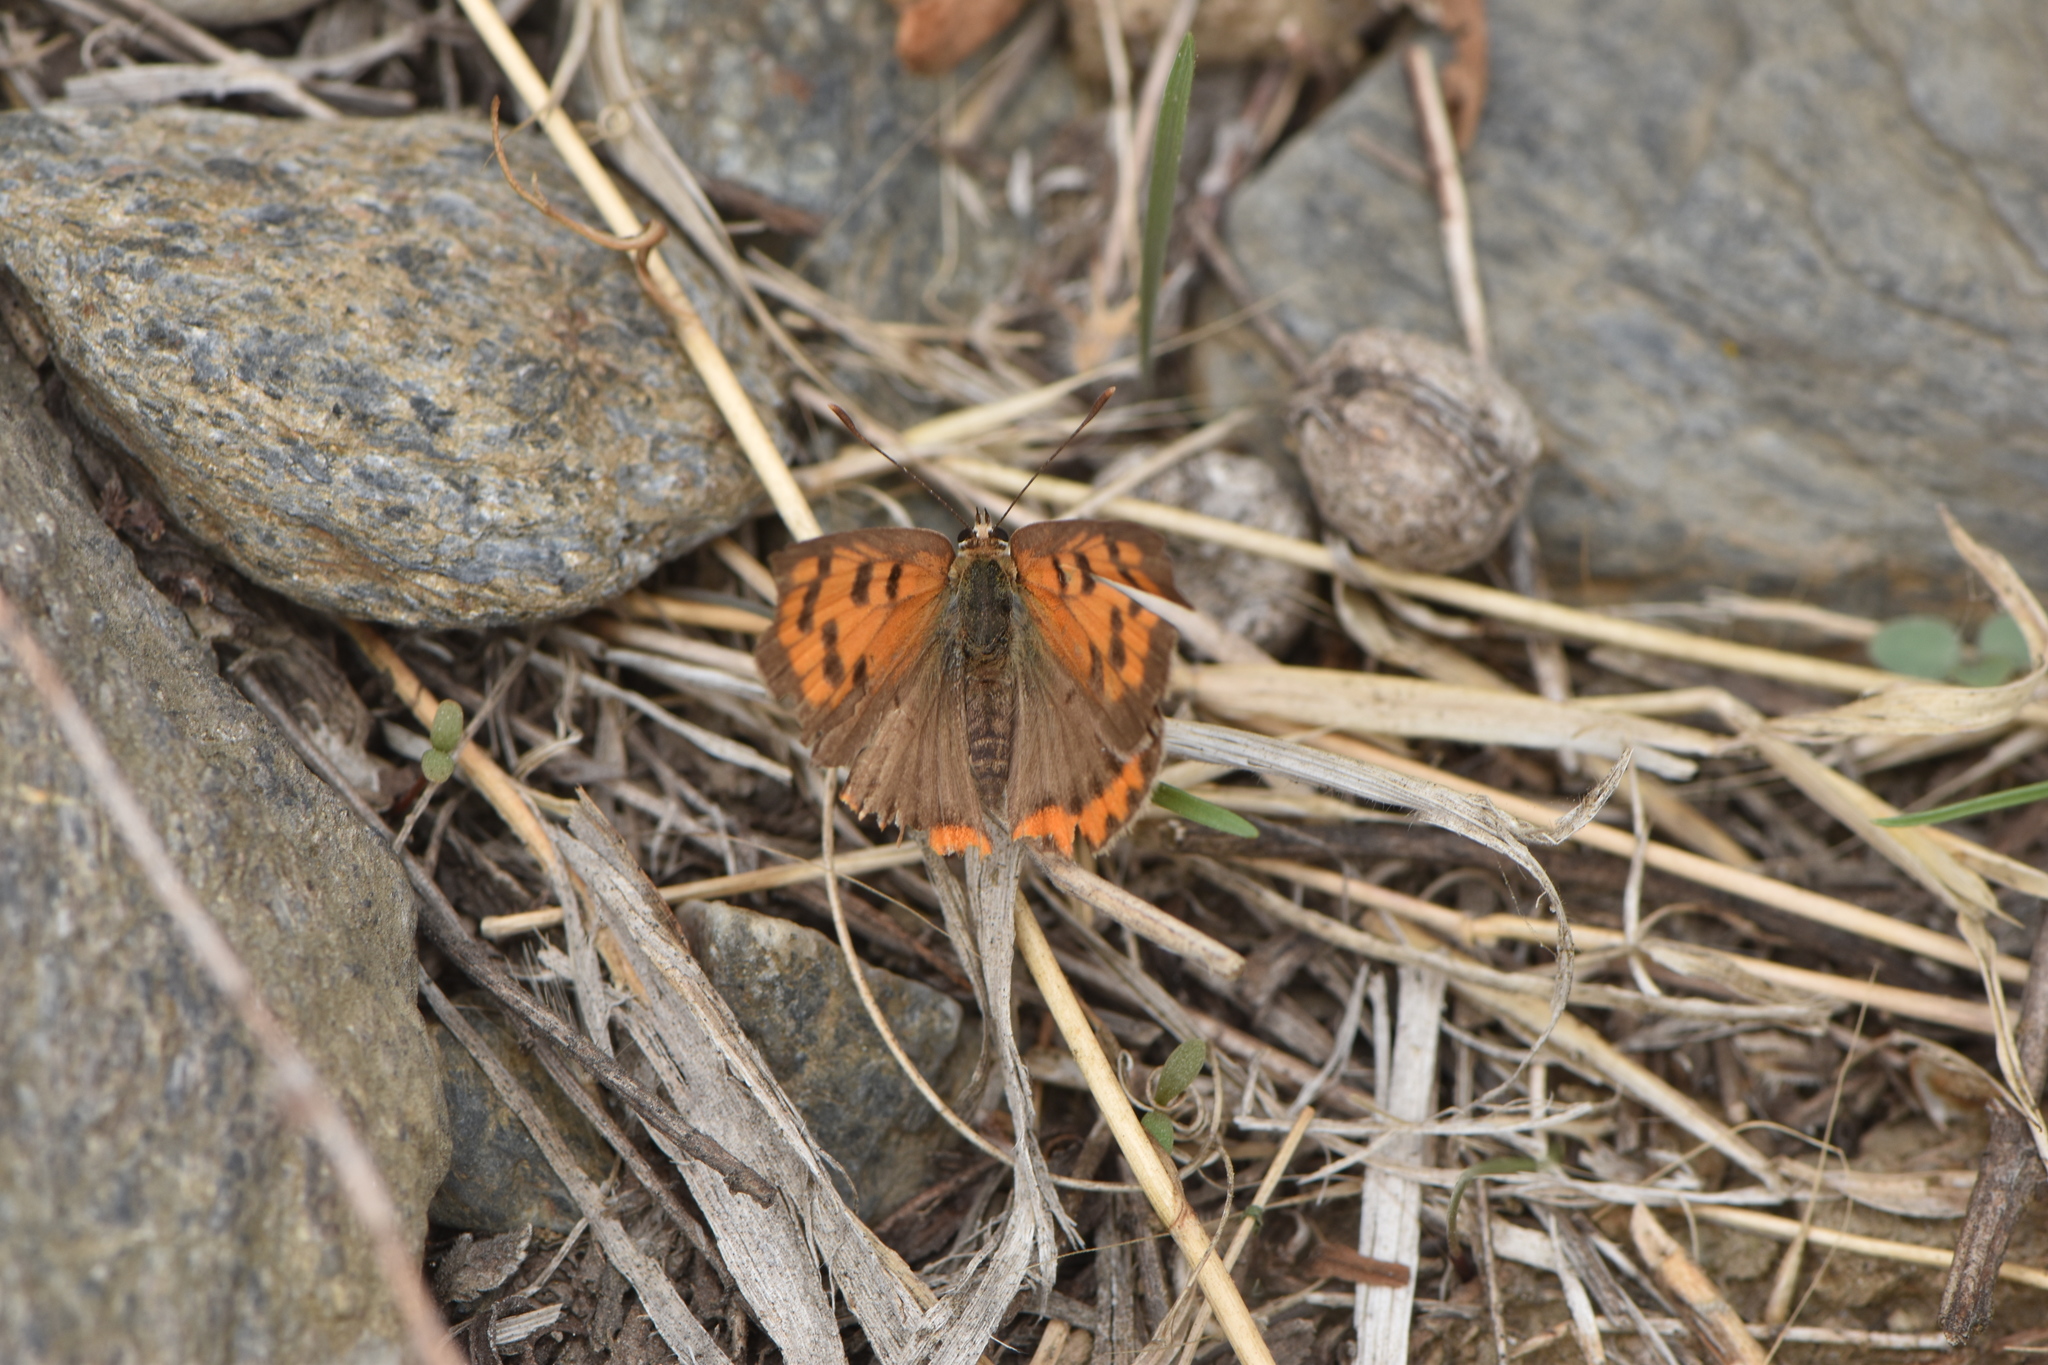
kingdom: Animalia
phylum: Arthropoda
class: Insecta
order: Lepidoptera
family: Lycaenidae
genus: Lycaena
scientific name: Lycaena phlaeas
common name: Small copper
